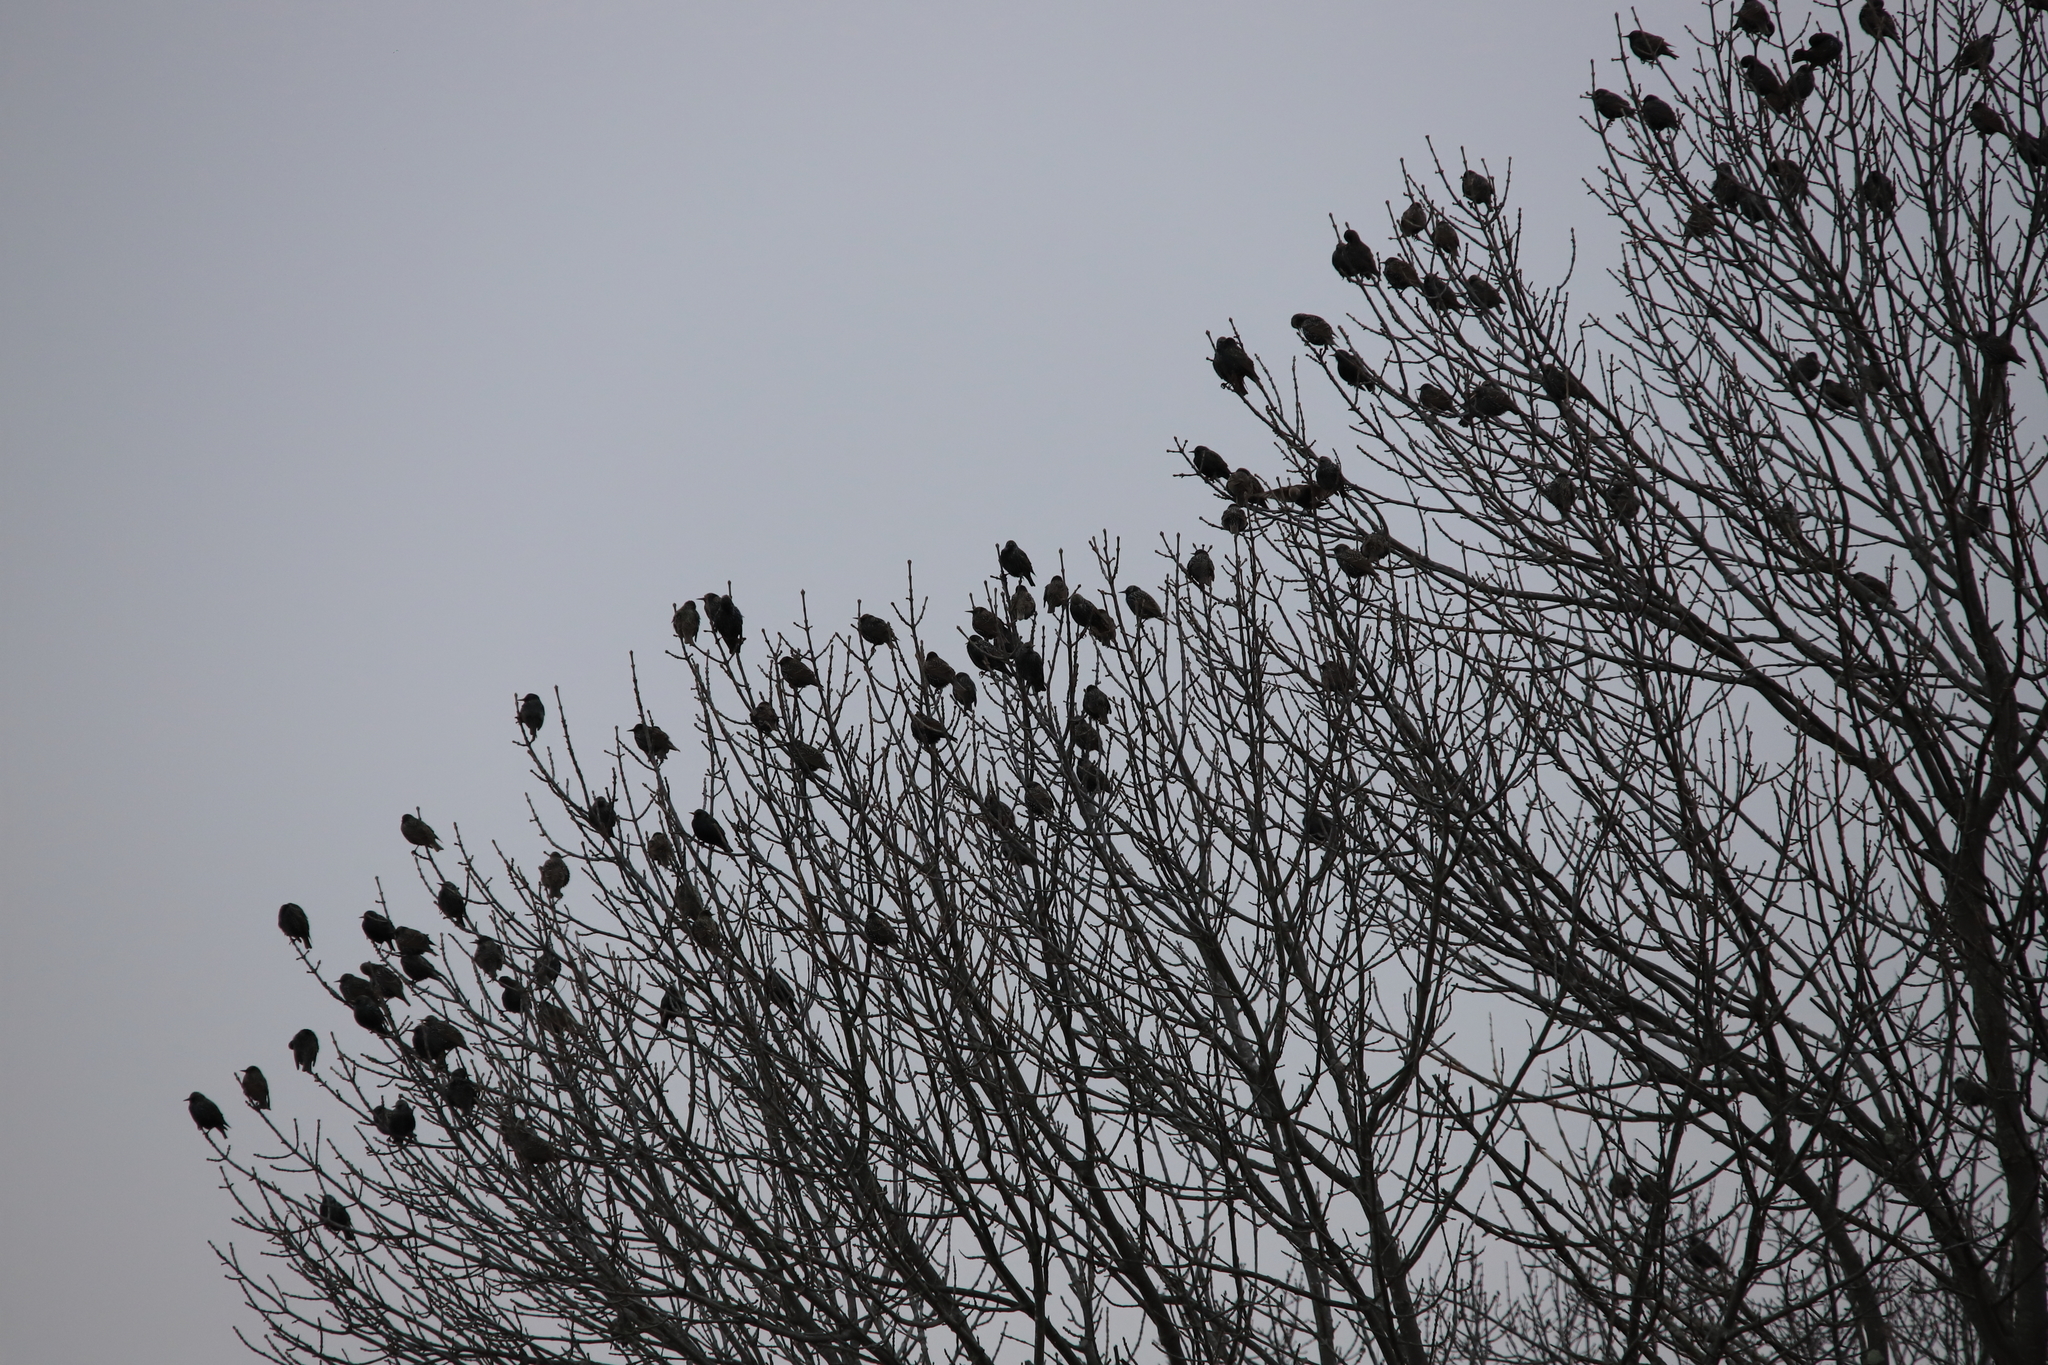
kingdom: Animalia
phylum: Chordata
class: Aves
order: Passeriformes
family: Sturnidae
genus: Sturnus
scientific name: Sturnus vulgaris
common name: Common starling
